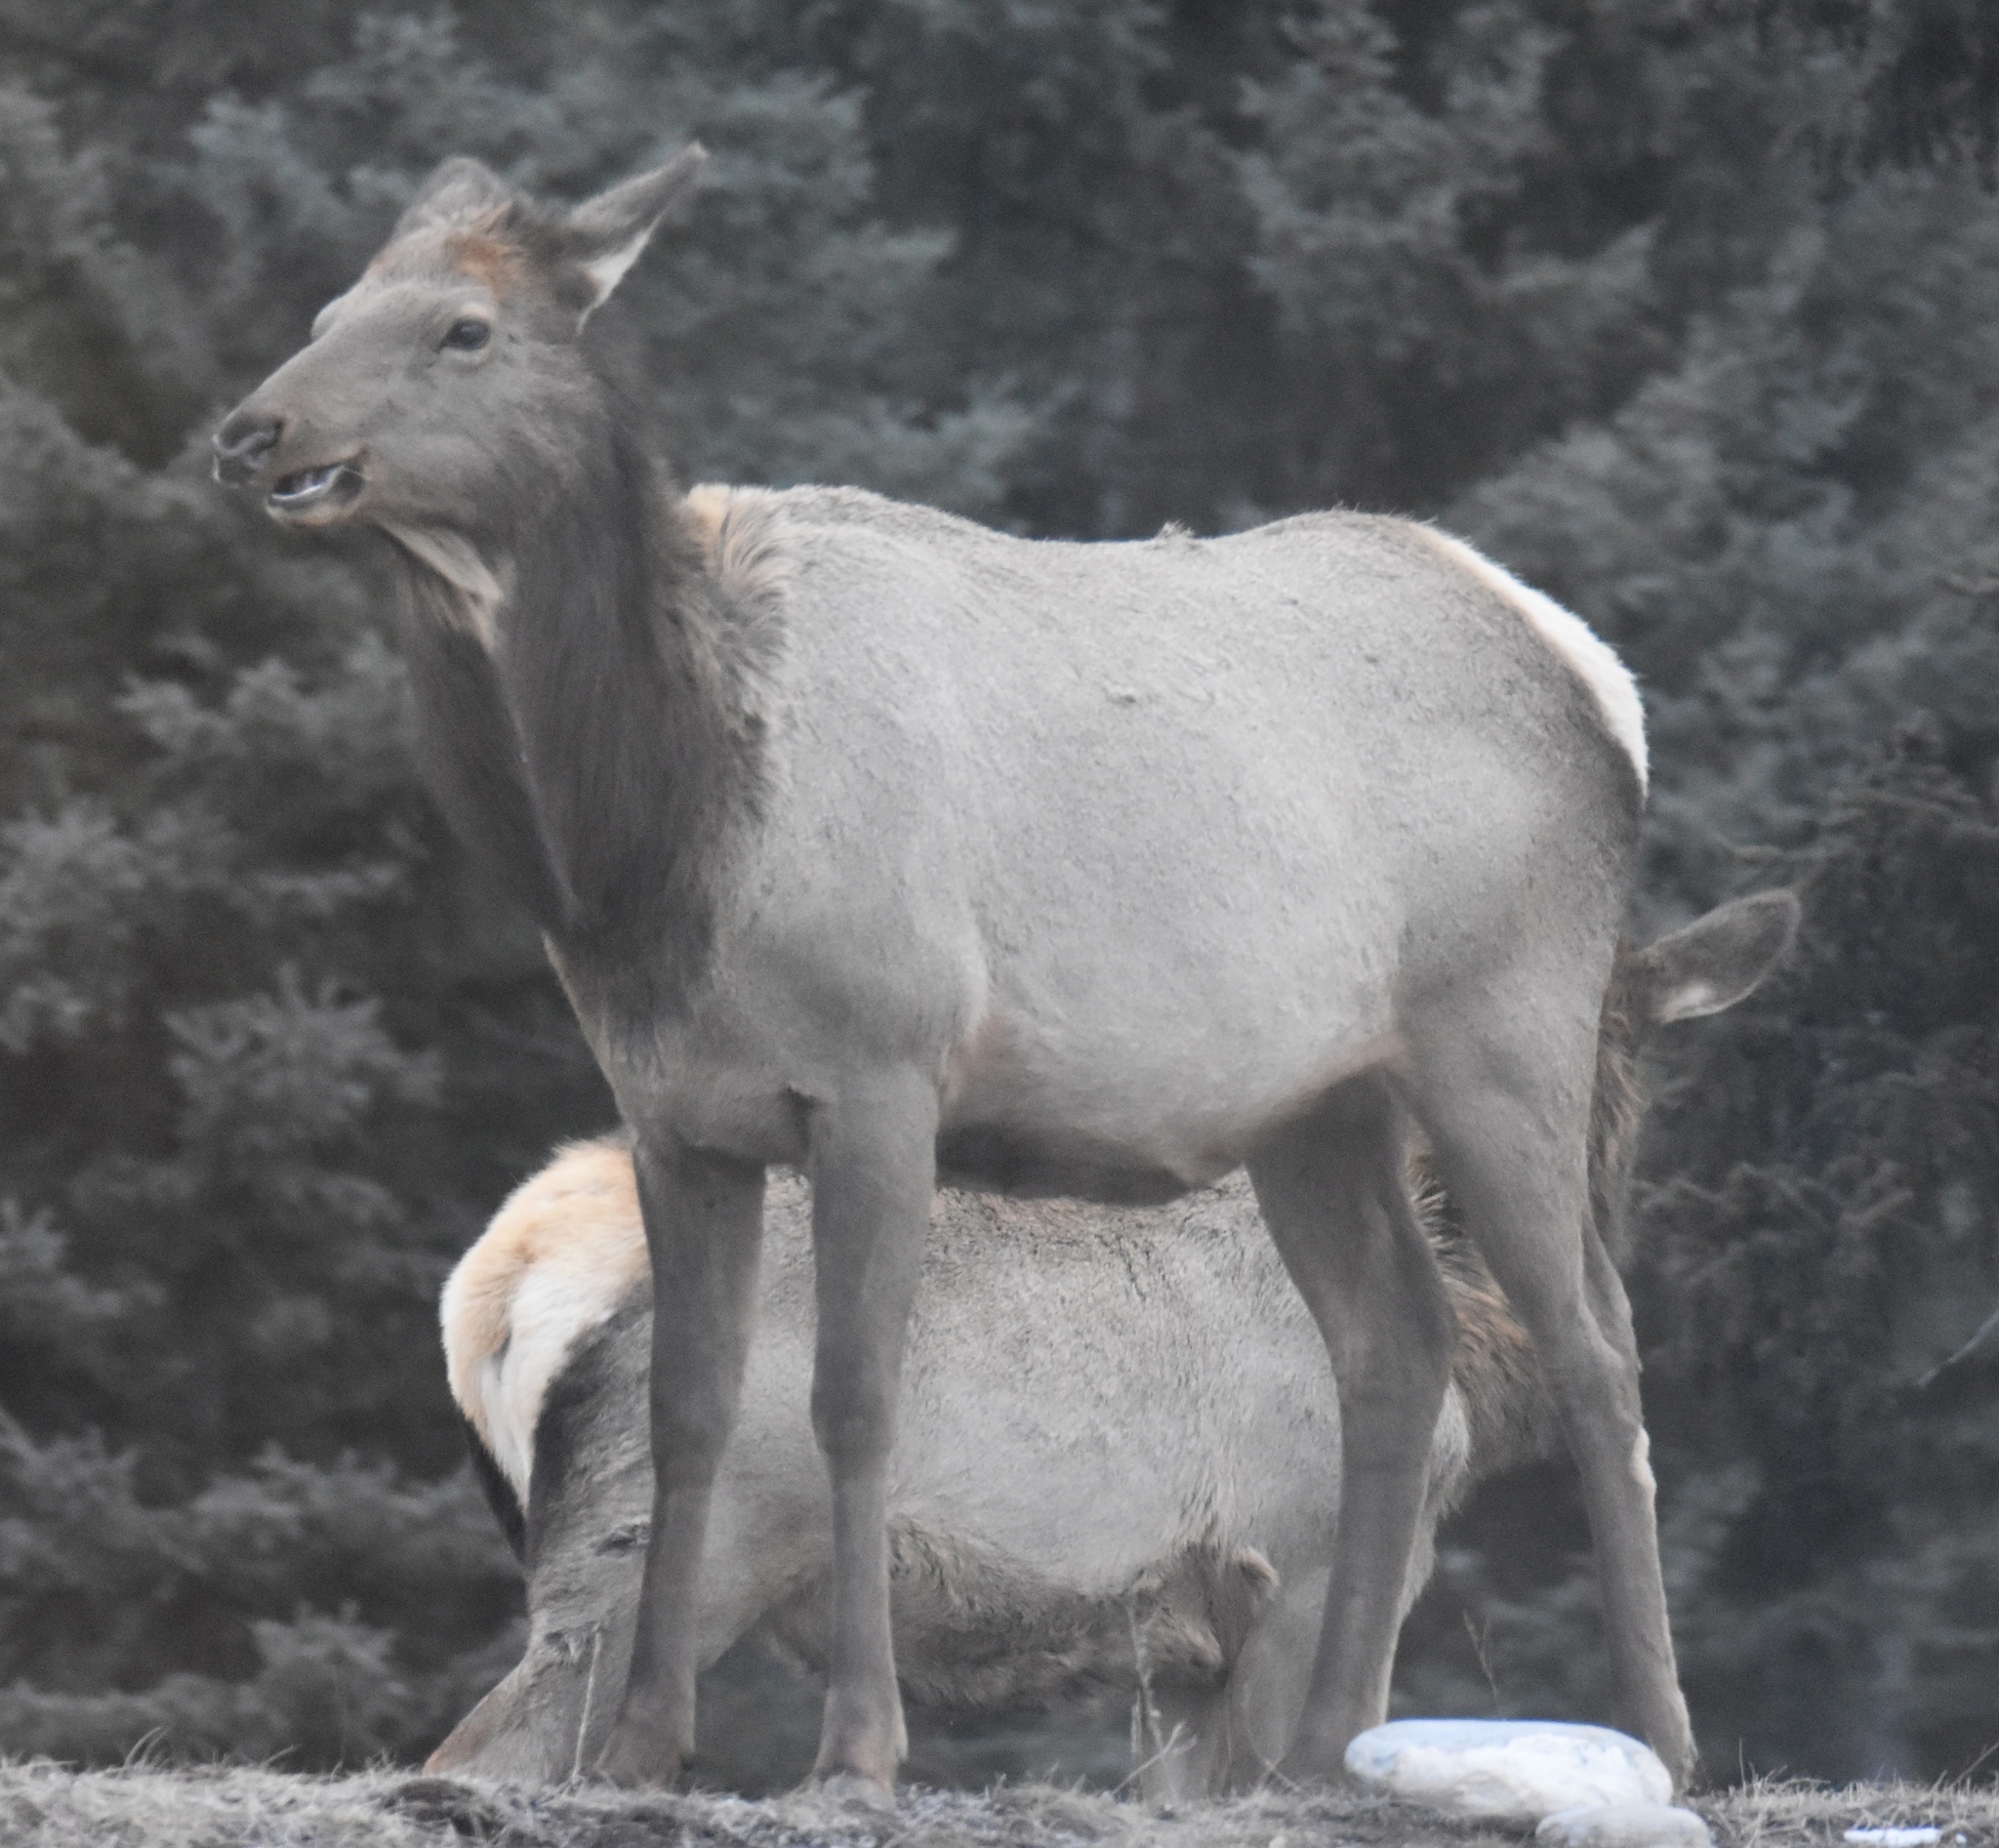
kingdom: Animalia
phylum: Chordata
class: Mammalia
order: Artiodactyla
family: Cervidae
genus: Cervus
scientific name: Cervus elaphus
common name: Red deer
